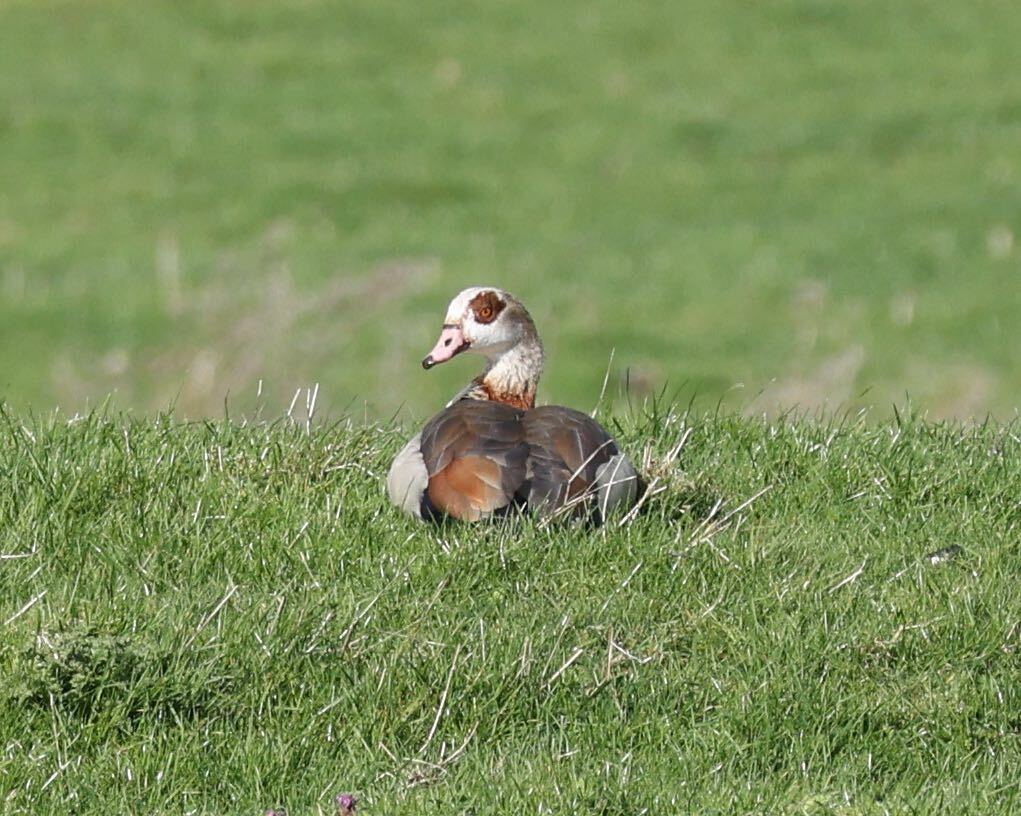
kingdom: Animalia
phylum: Chordata
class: Aves
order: Anseriformes
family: Anatidae
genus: Alopochen
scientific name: Alopochen aegyptiaca
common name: Egyptian goose
